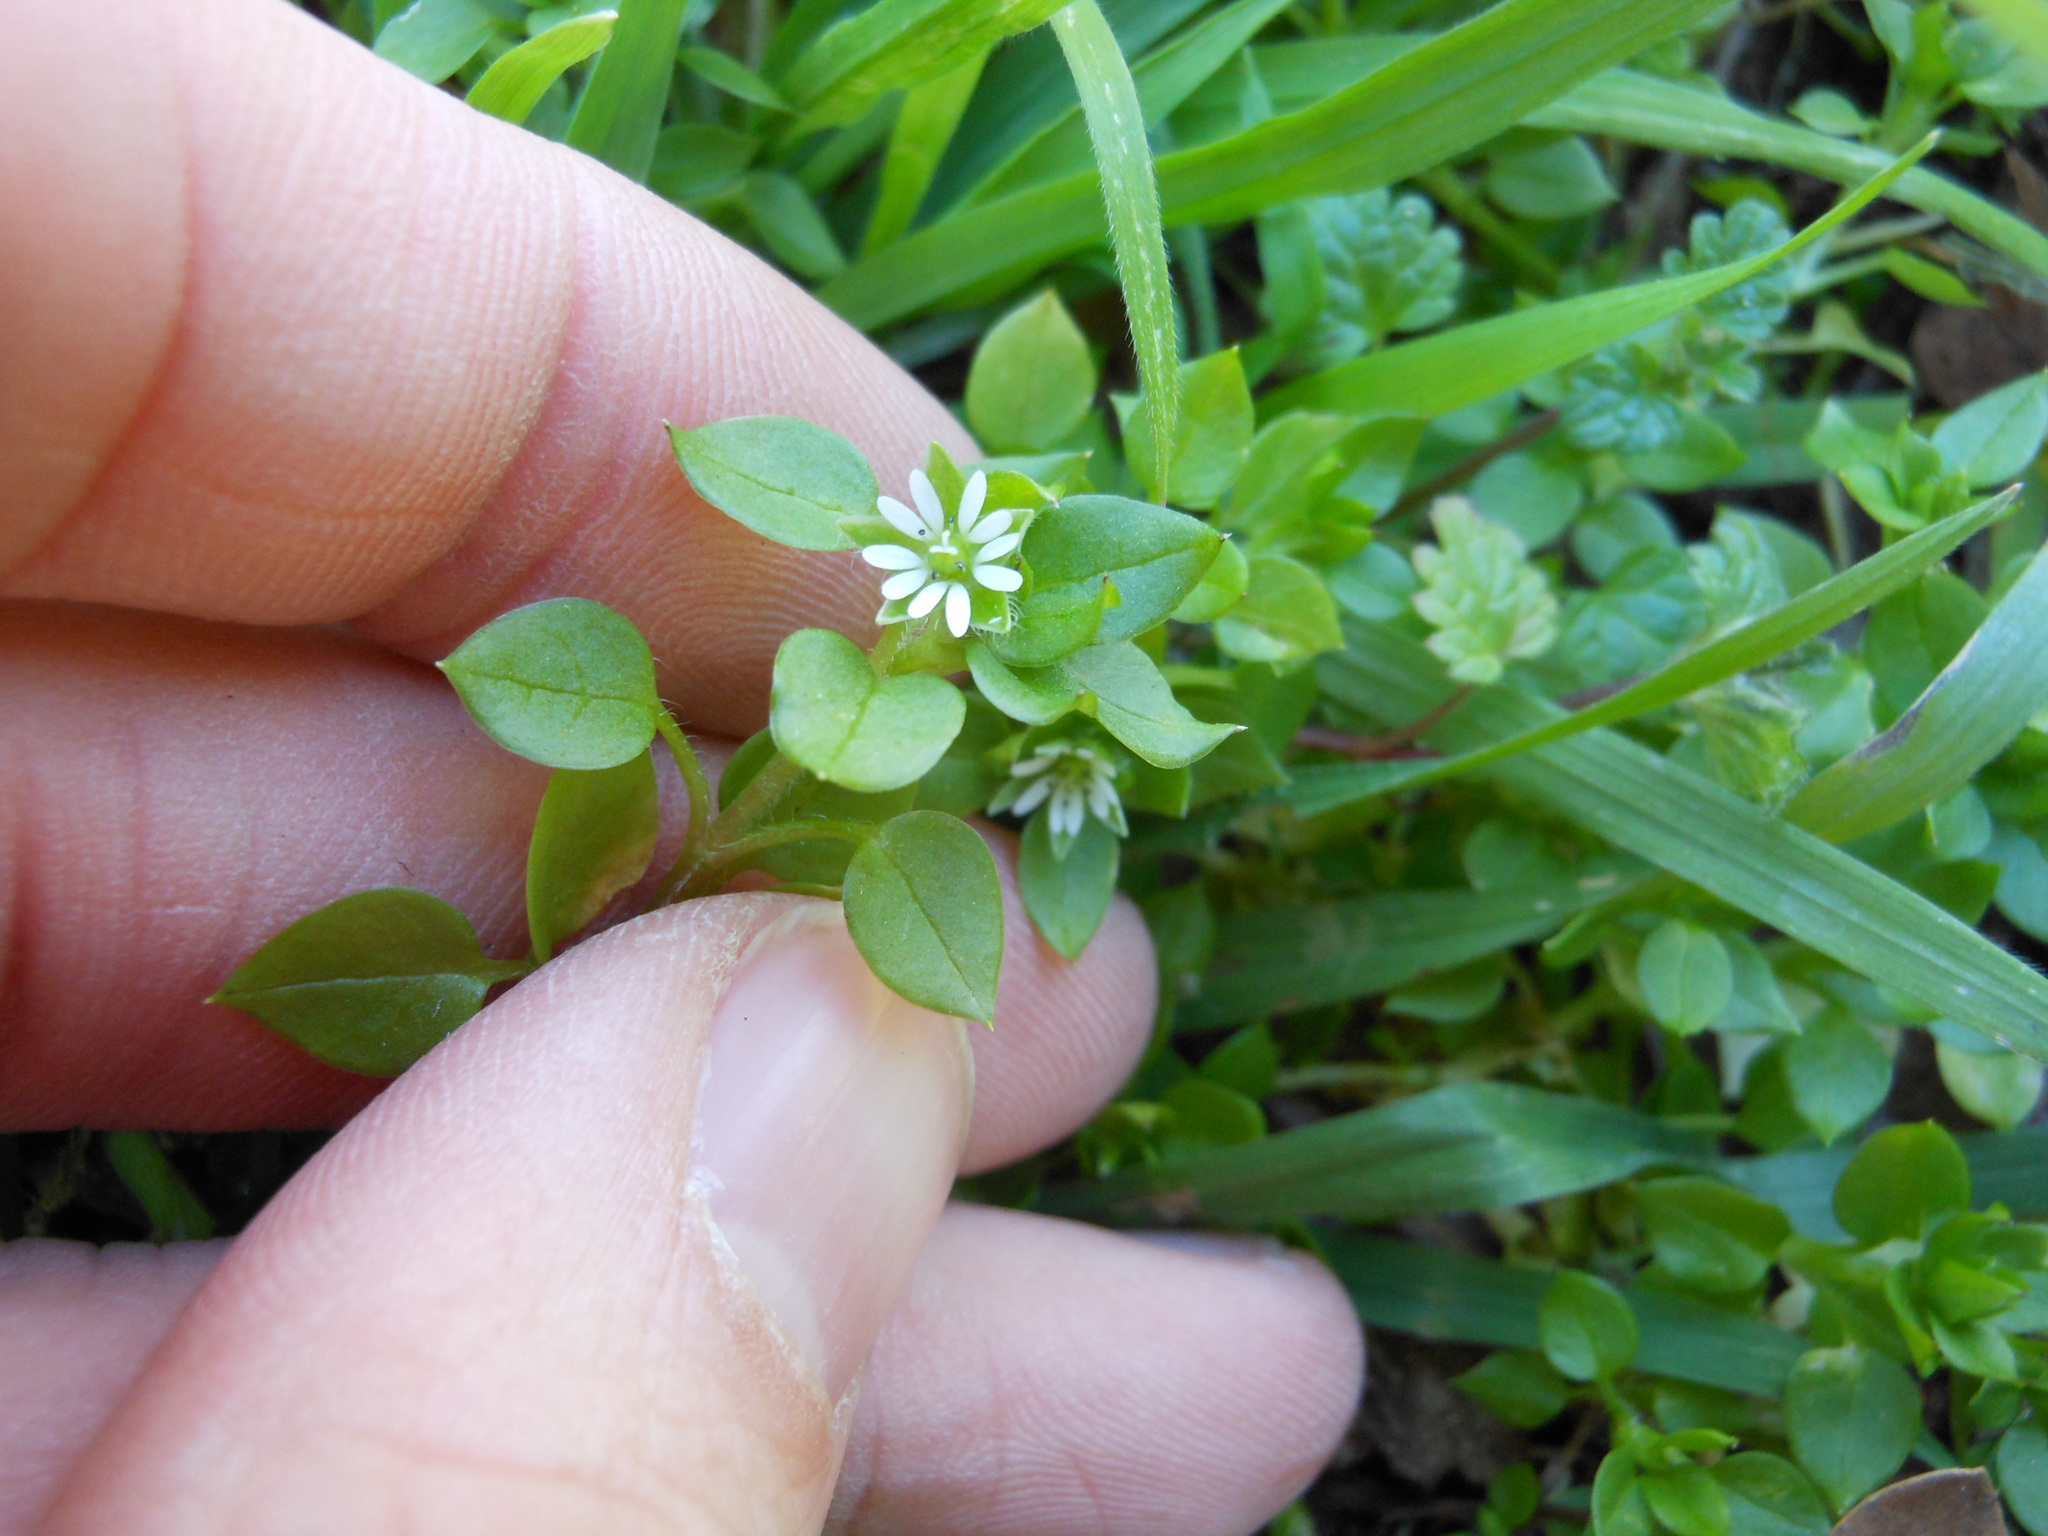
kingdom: Plantae
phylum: Tracheophyta
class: Magnoliopsida
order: Caryophyllales
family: Caryophyllaceae
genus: Stellaria
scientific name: Stellaria media
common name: Common chickweed
